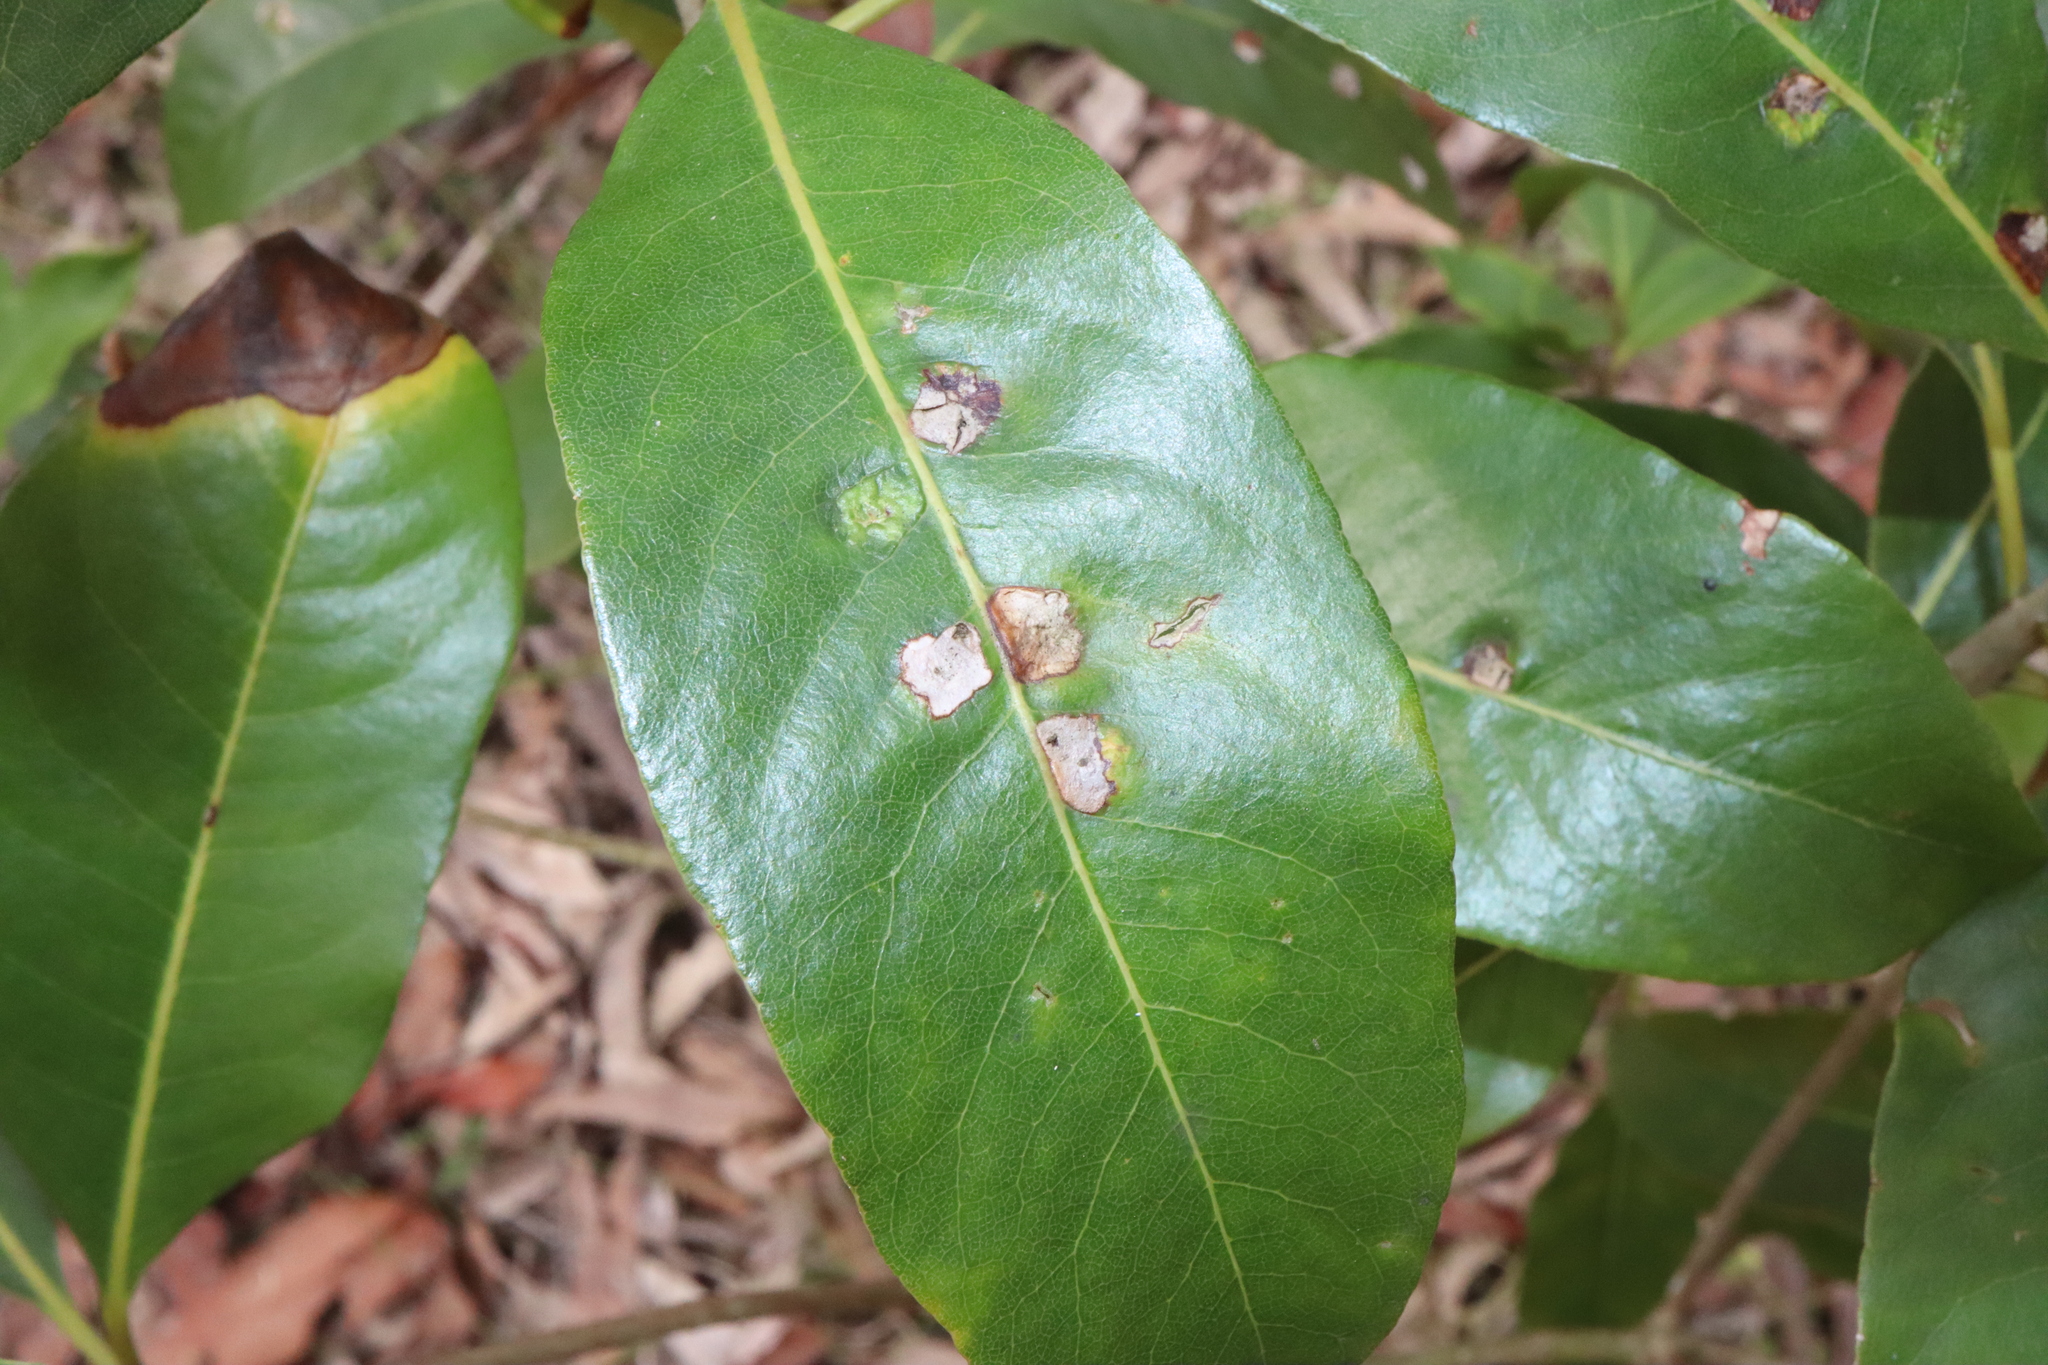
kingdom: Animalia
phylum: Arthropoda
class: Insecta
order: Diptera
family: Agromyzidae
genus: Phytoliriomyza
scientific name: Phytoliriomyza pittosporophylli
